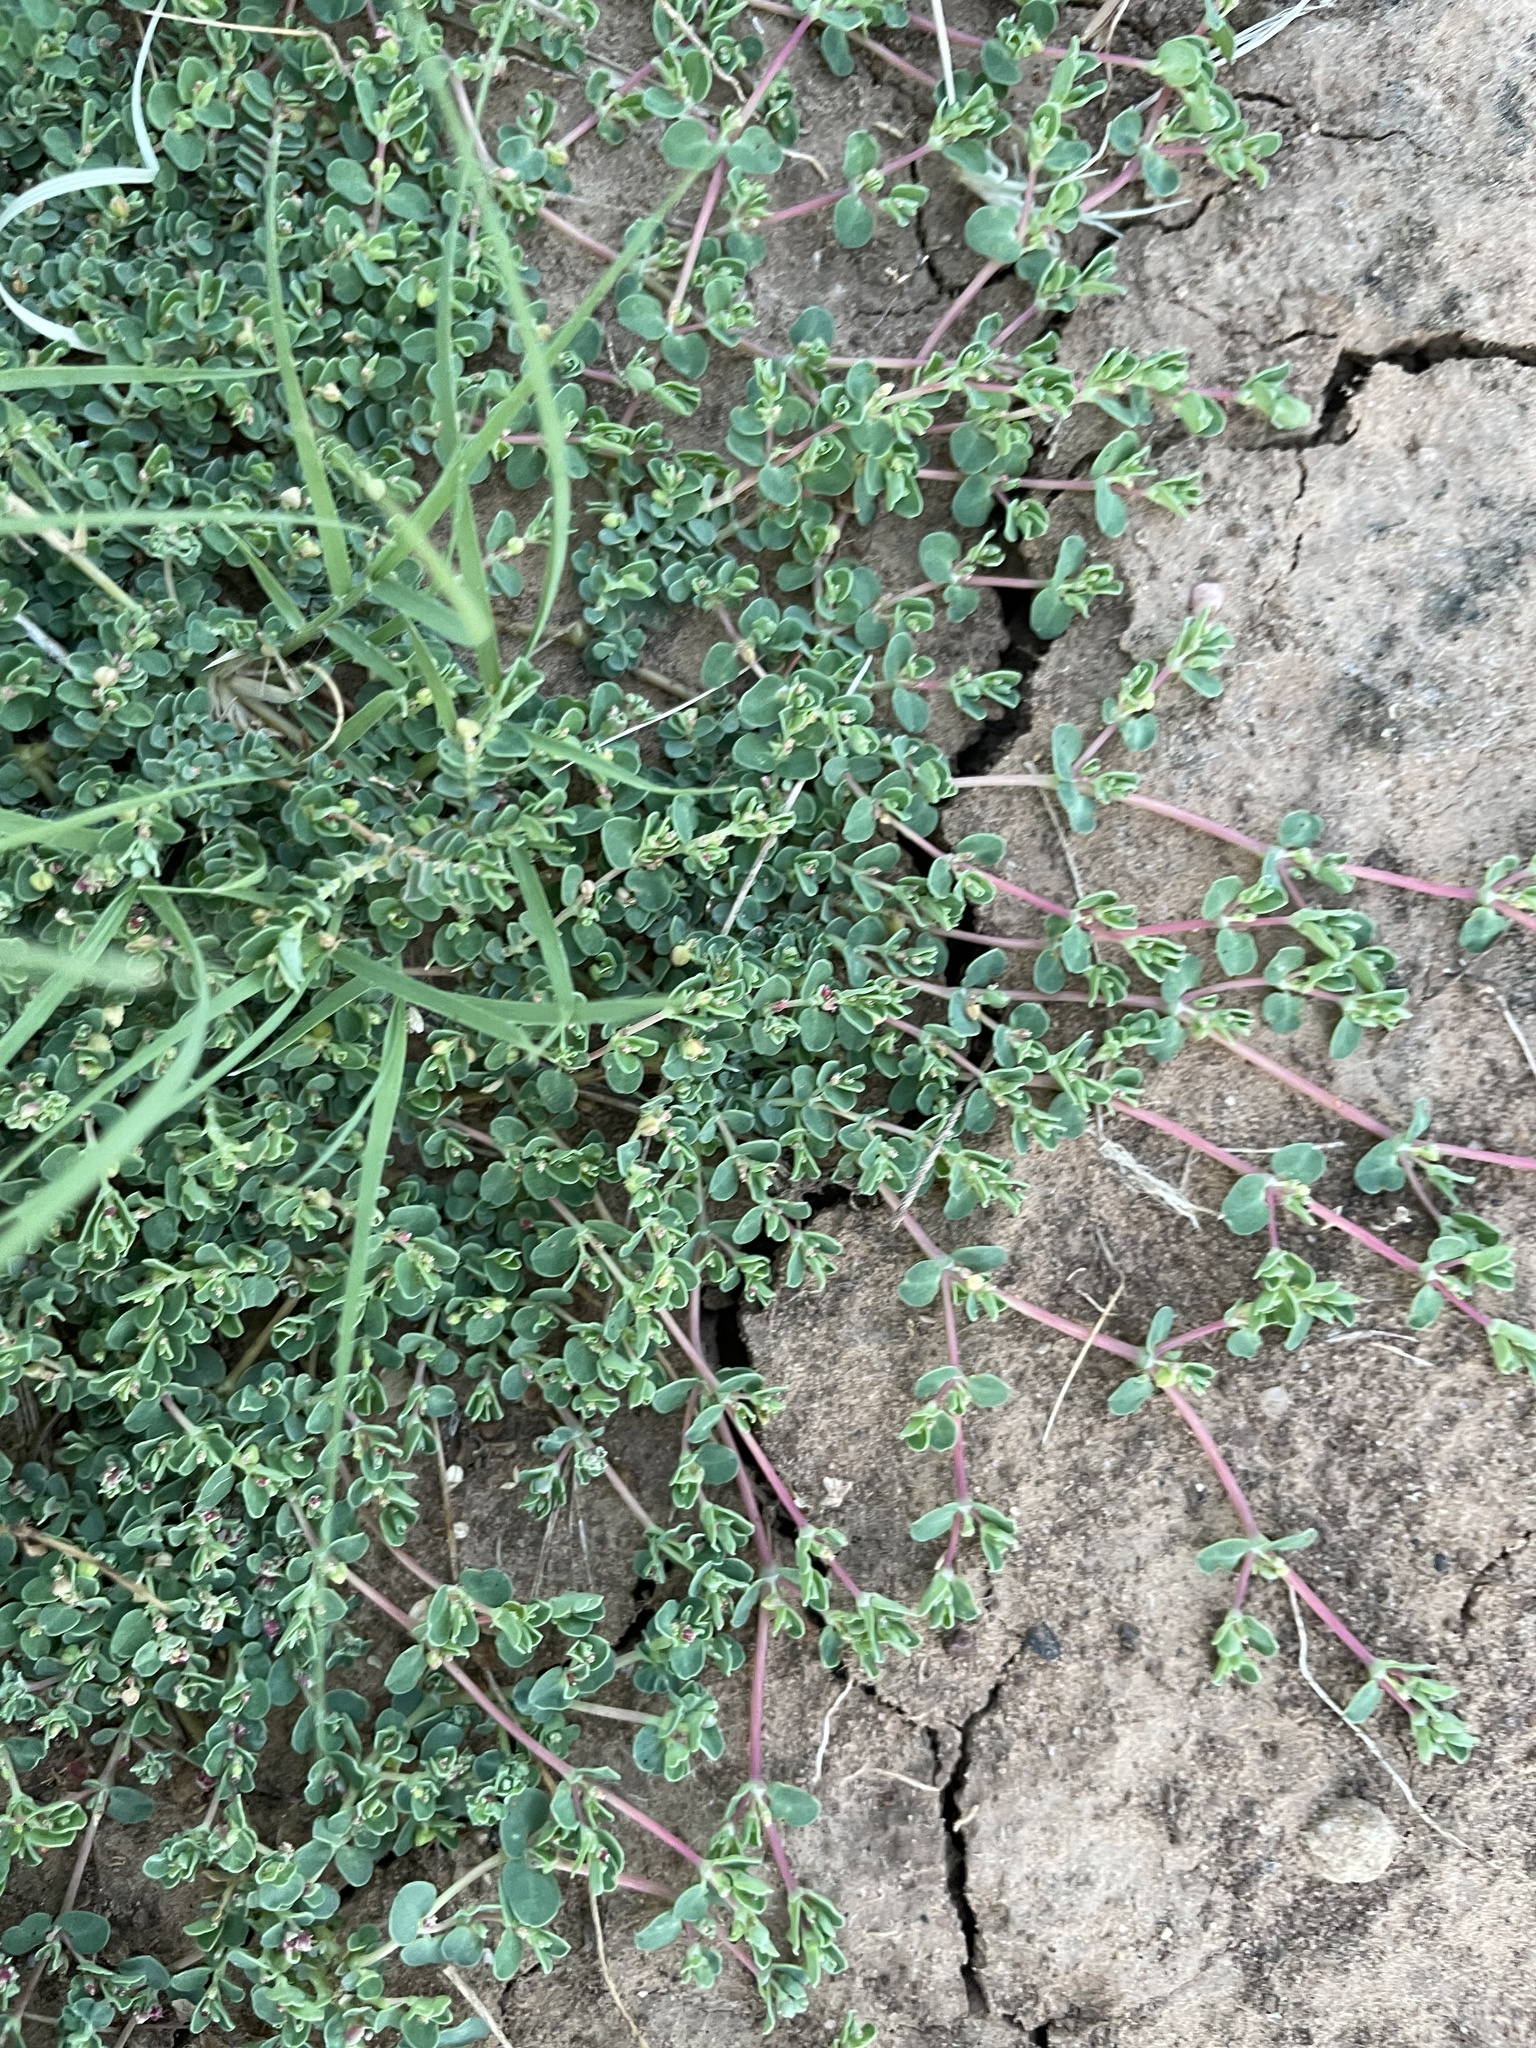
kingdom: Plantae
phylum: Tracheophyta
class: Magnoliopsida
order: Malpighiales
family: Euphorbiaceae
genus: Euphorbia
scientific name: Euphorbia serpens
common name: Matted sandmat
